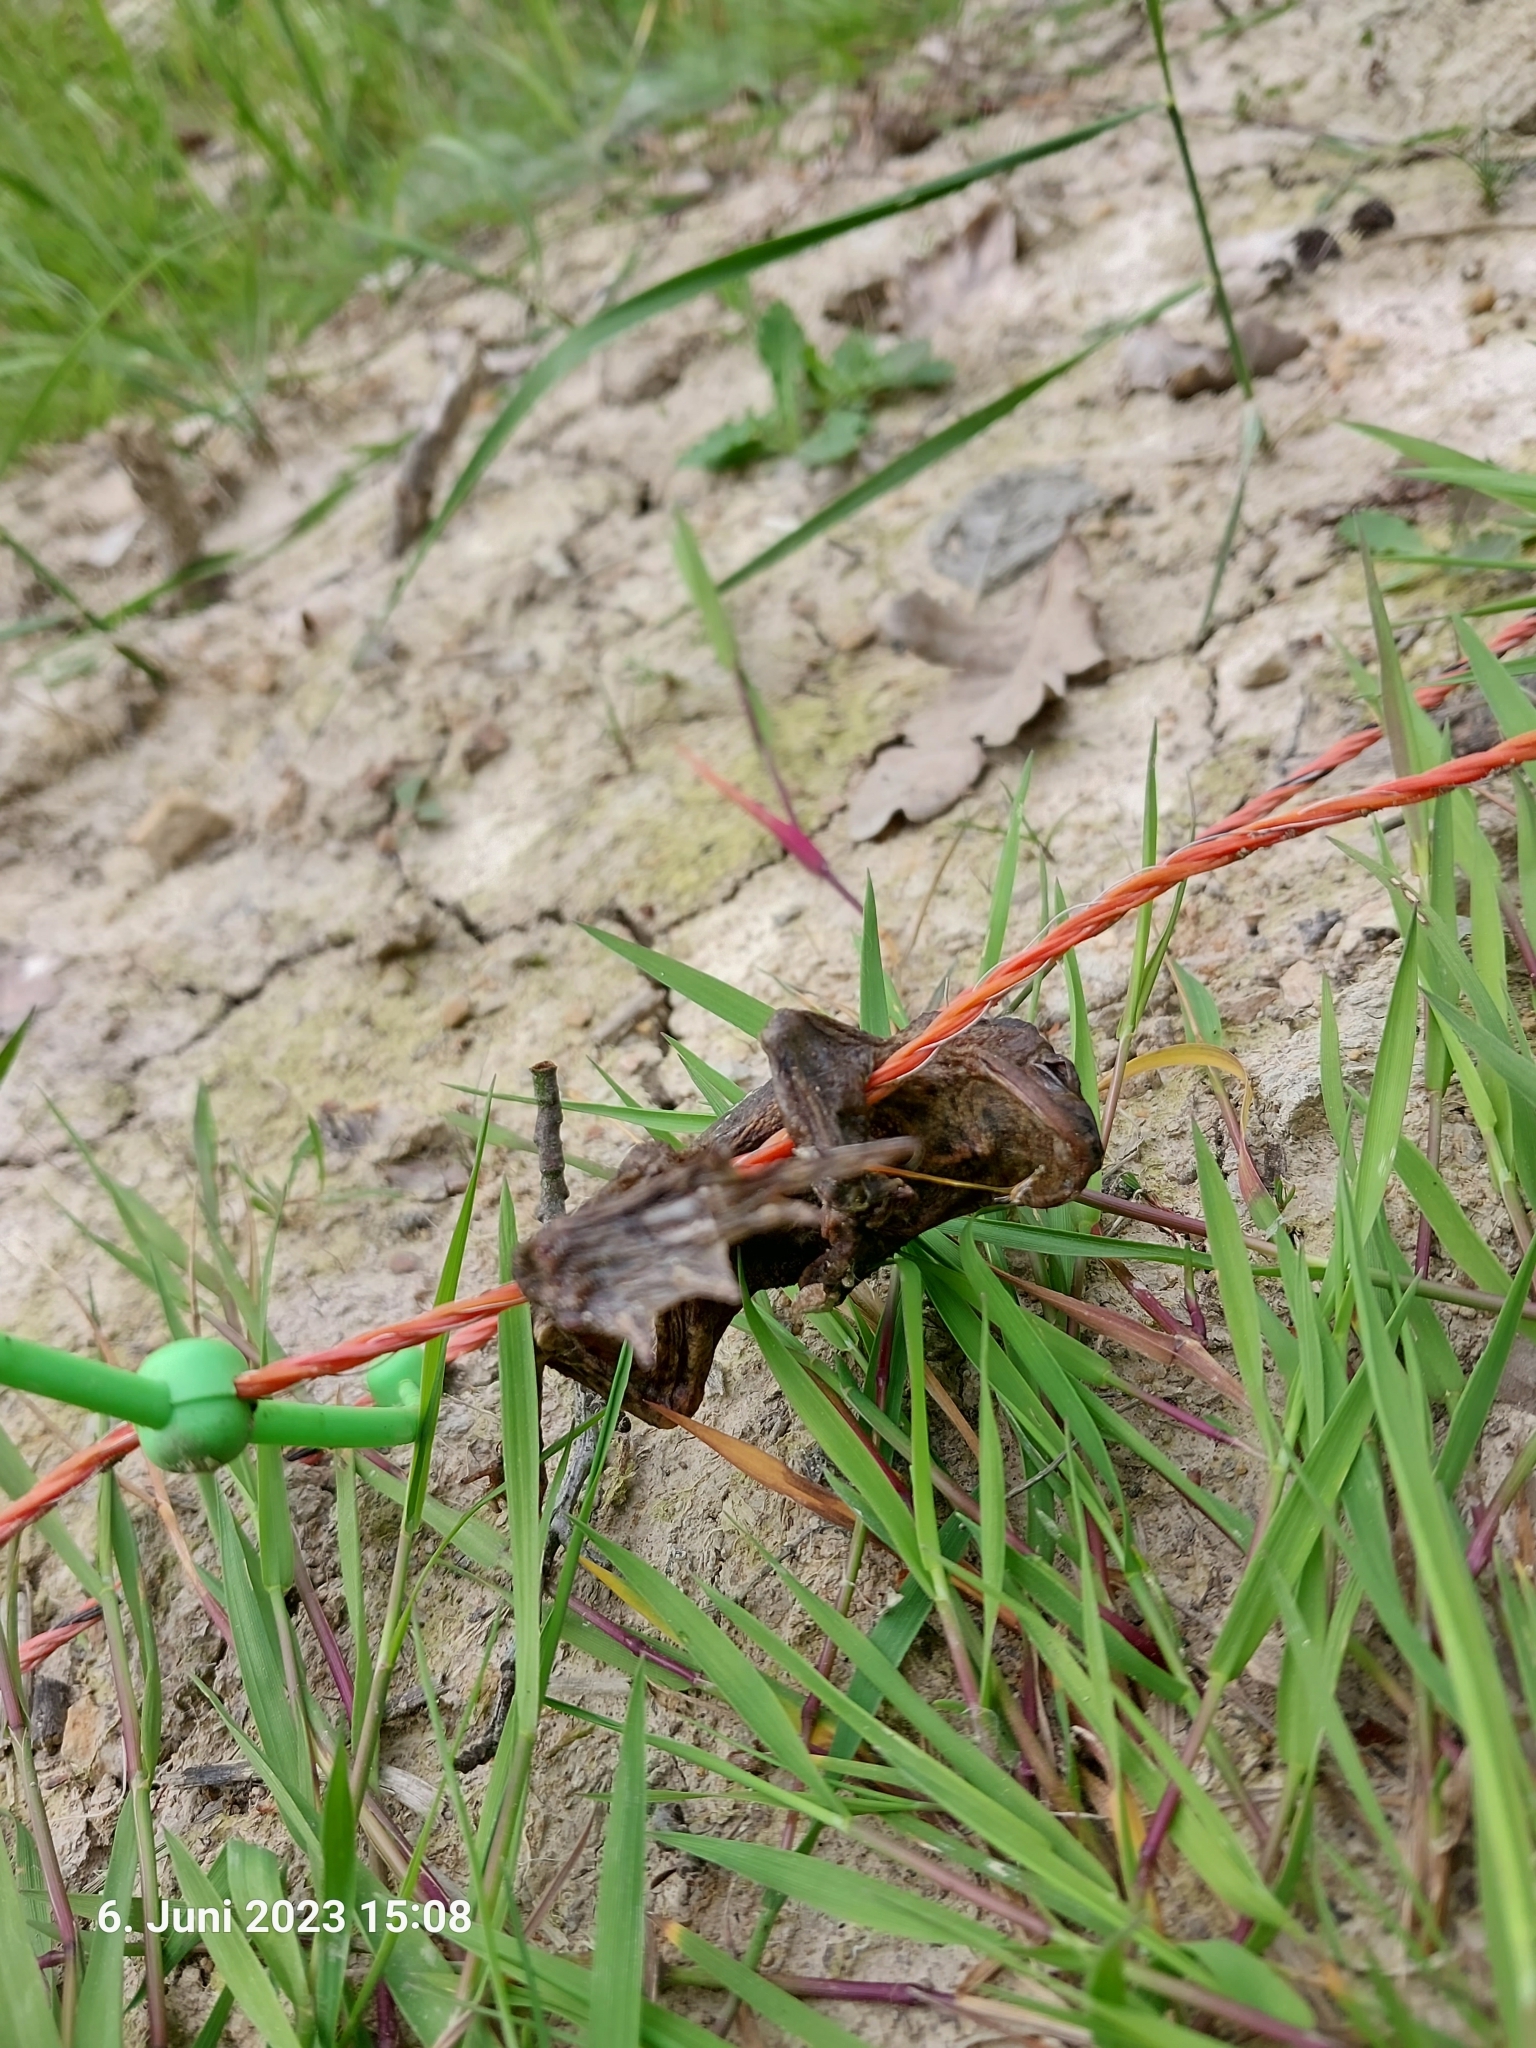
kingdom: Animalia
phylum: Chordata
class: Amphibia
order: Anura
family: Bufonidae
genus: Bufo
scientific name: Bufo bufo
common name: Common toad
